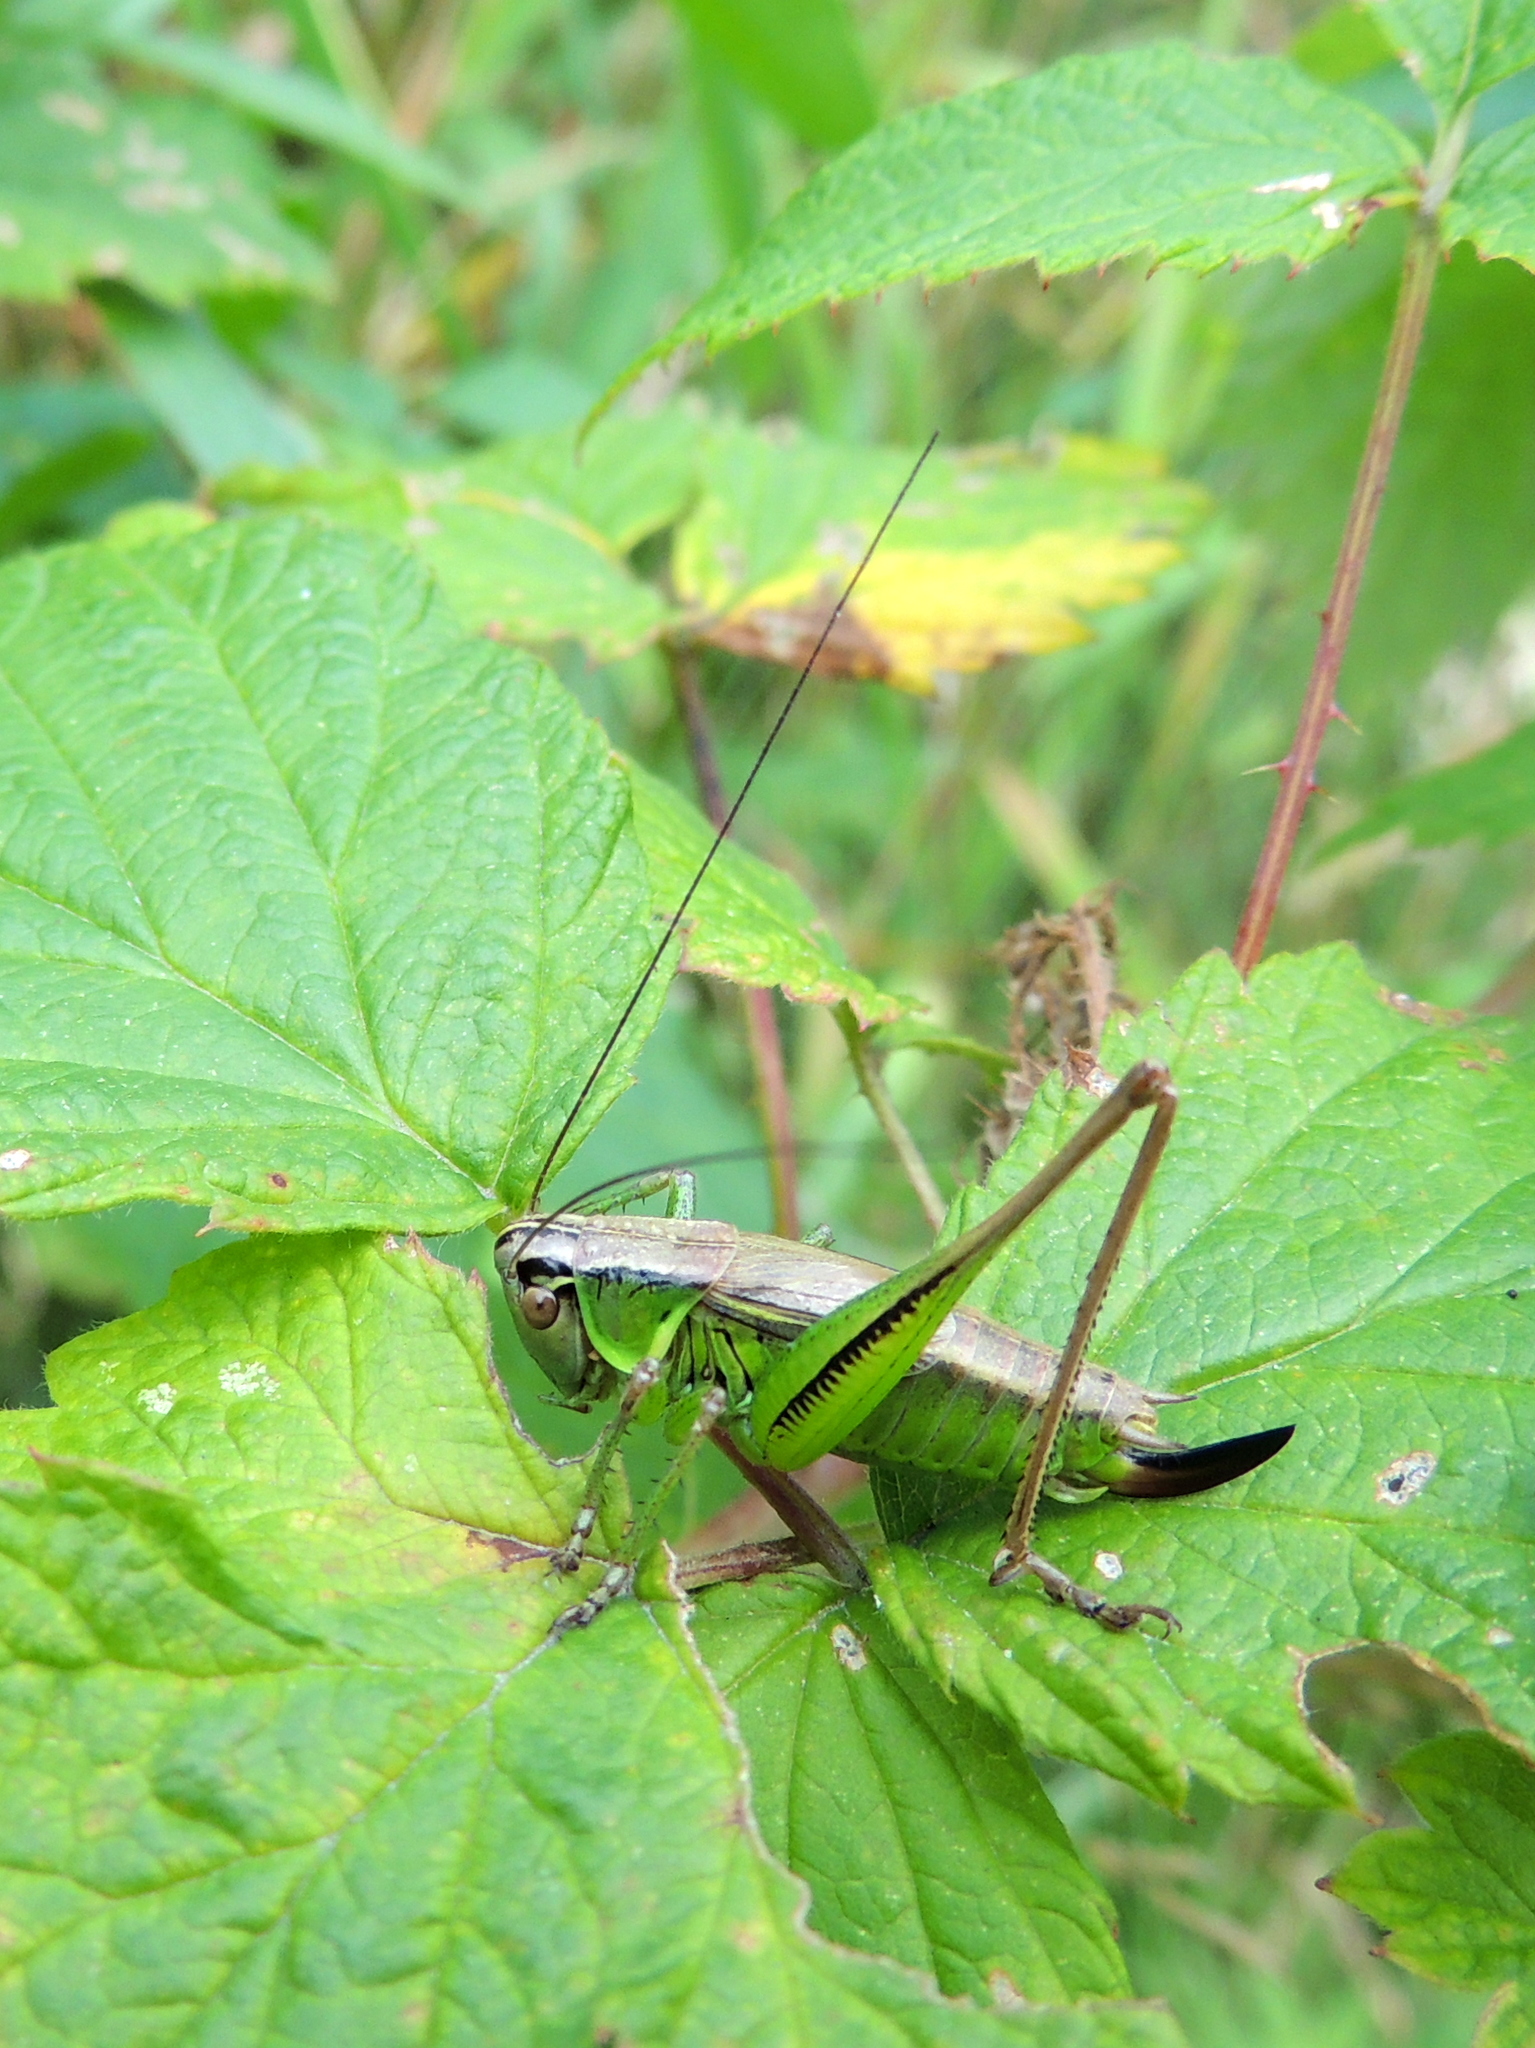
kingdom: Animalia
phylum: Arthropoda
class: Insecta
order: Orthoptera
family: Tettigoniidae
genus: Roeseliana
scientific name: Roeseliana roeselii
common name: Roesel's bush cricket
